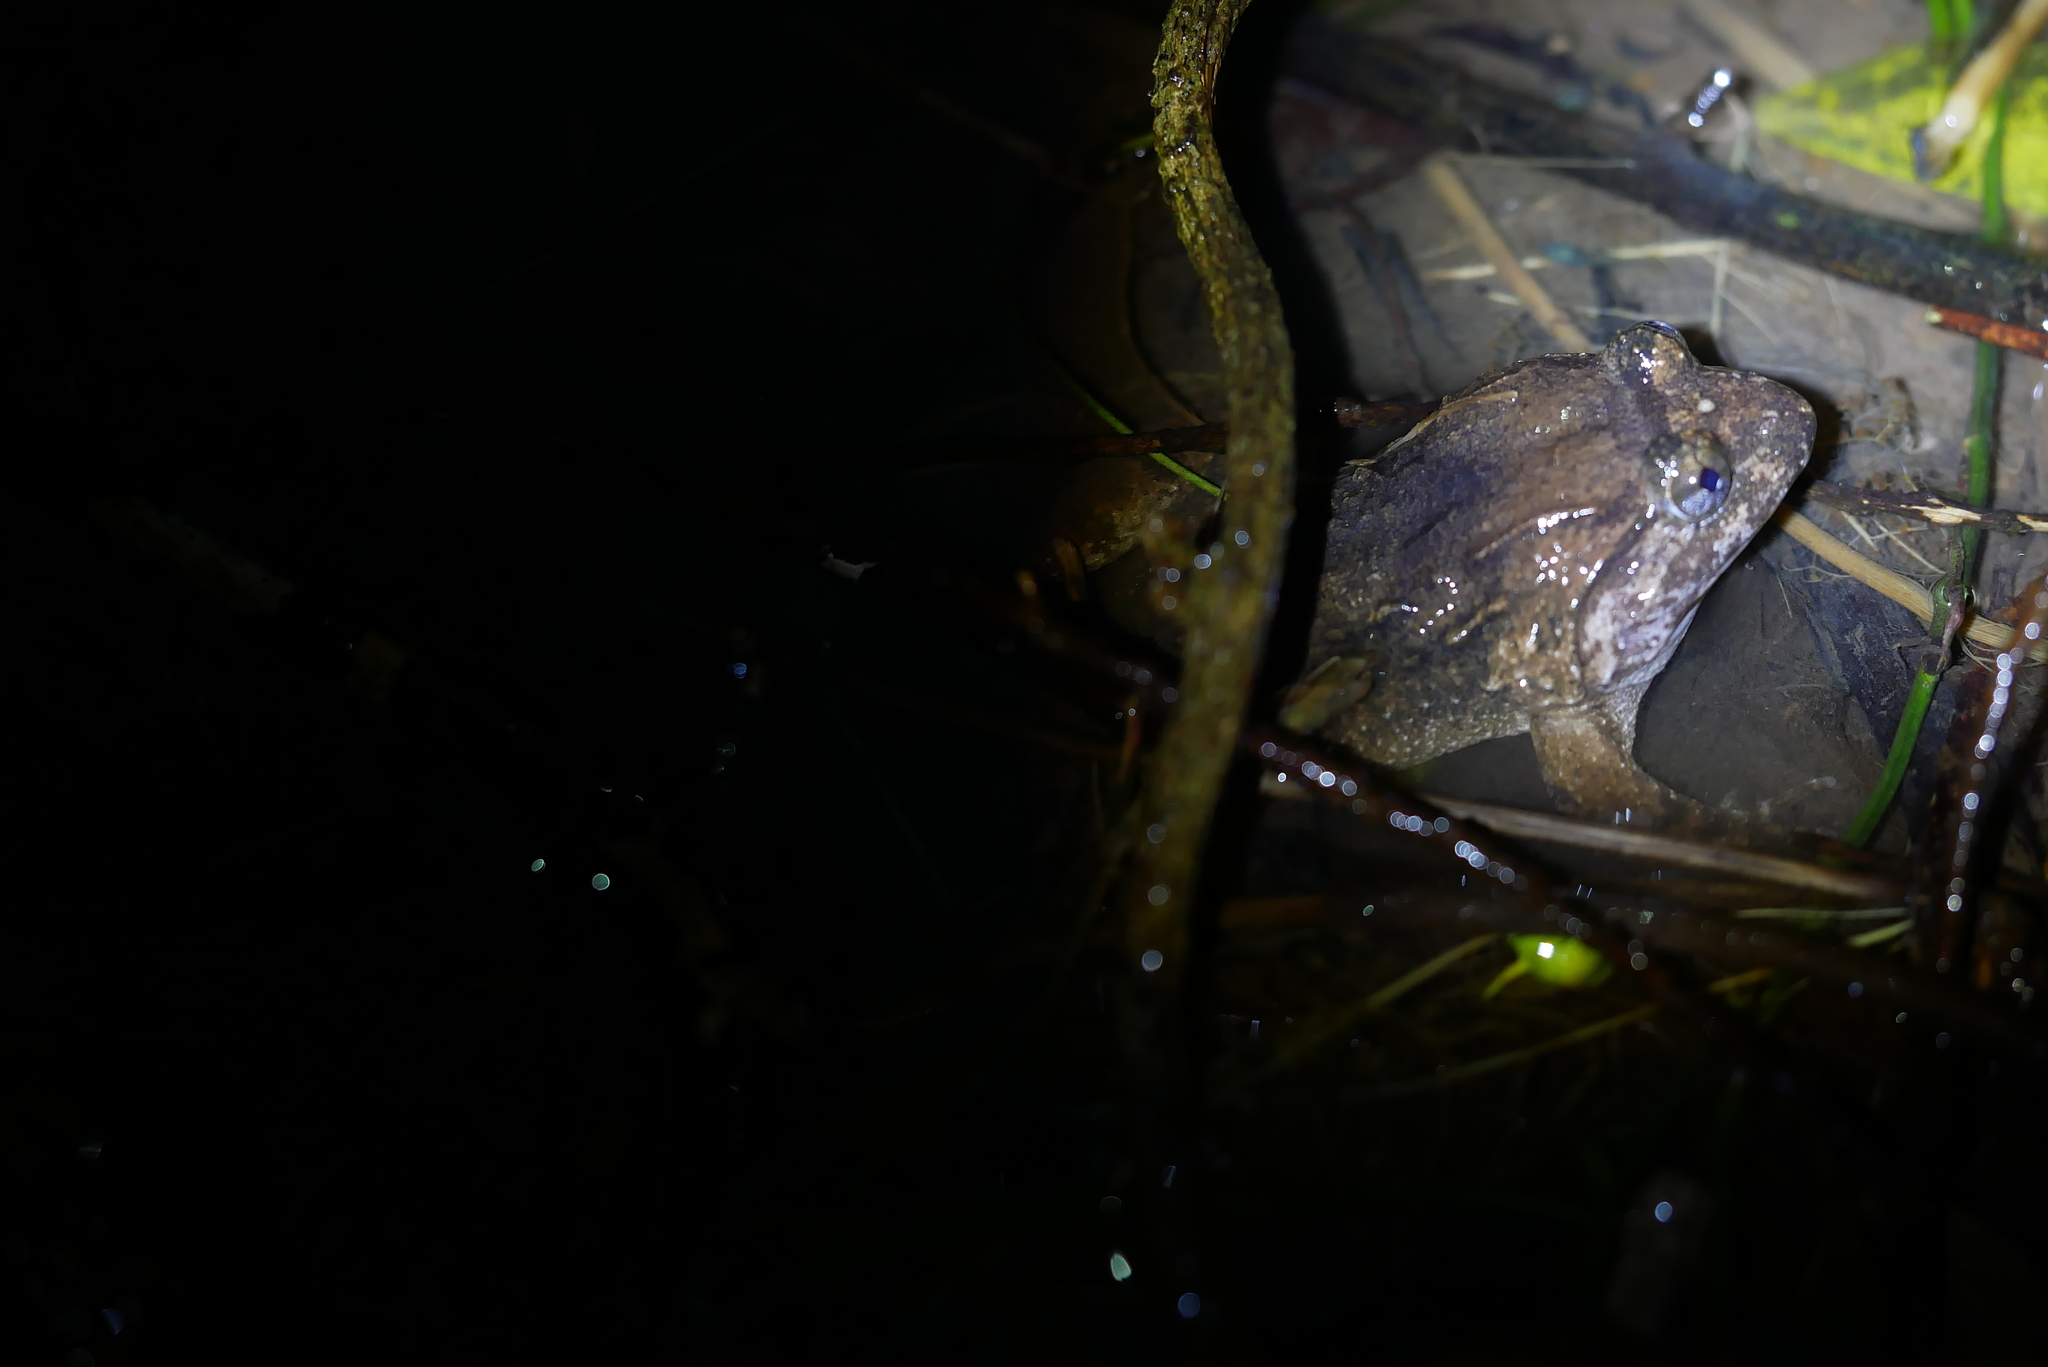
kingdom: Animalia
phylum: Chordata
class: Amphibia
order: Anura
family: Dicroglossidae
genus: Limnonectes
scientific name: Limnonectes fujianensis
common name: Fujian large-headed frog
